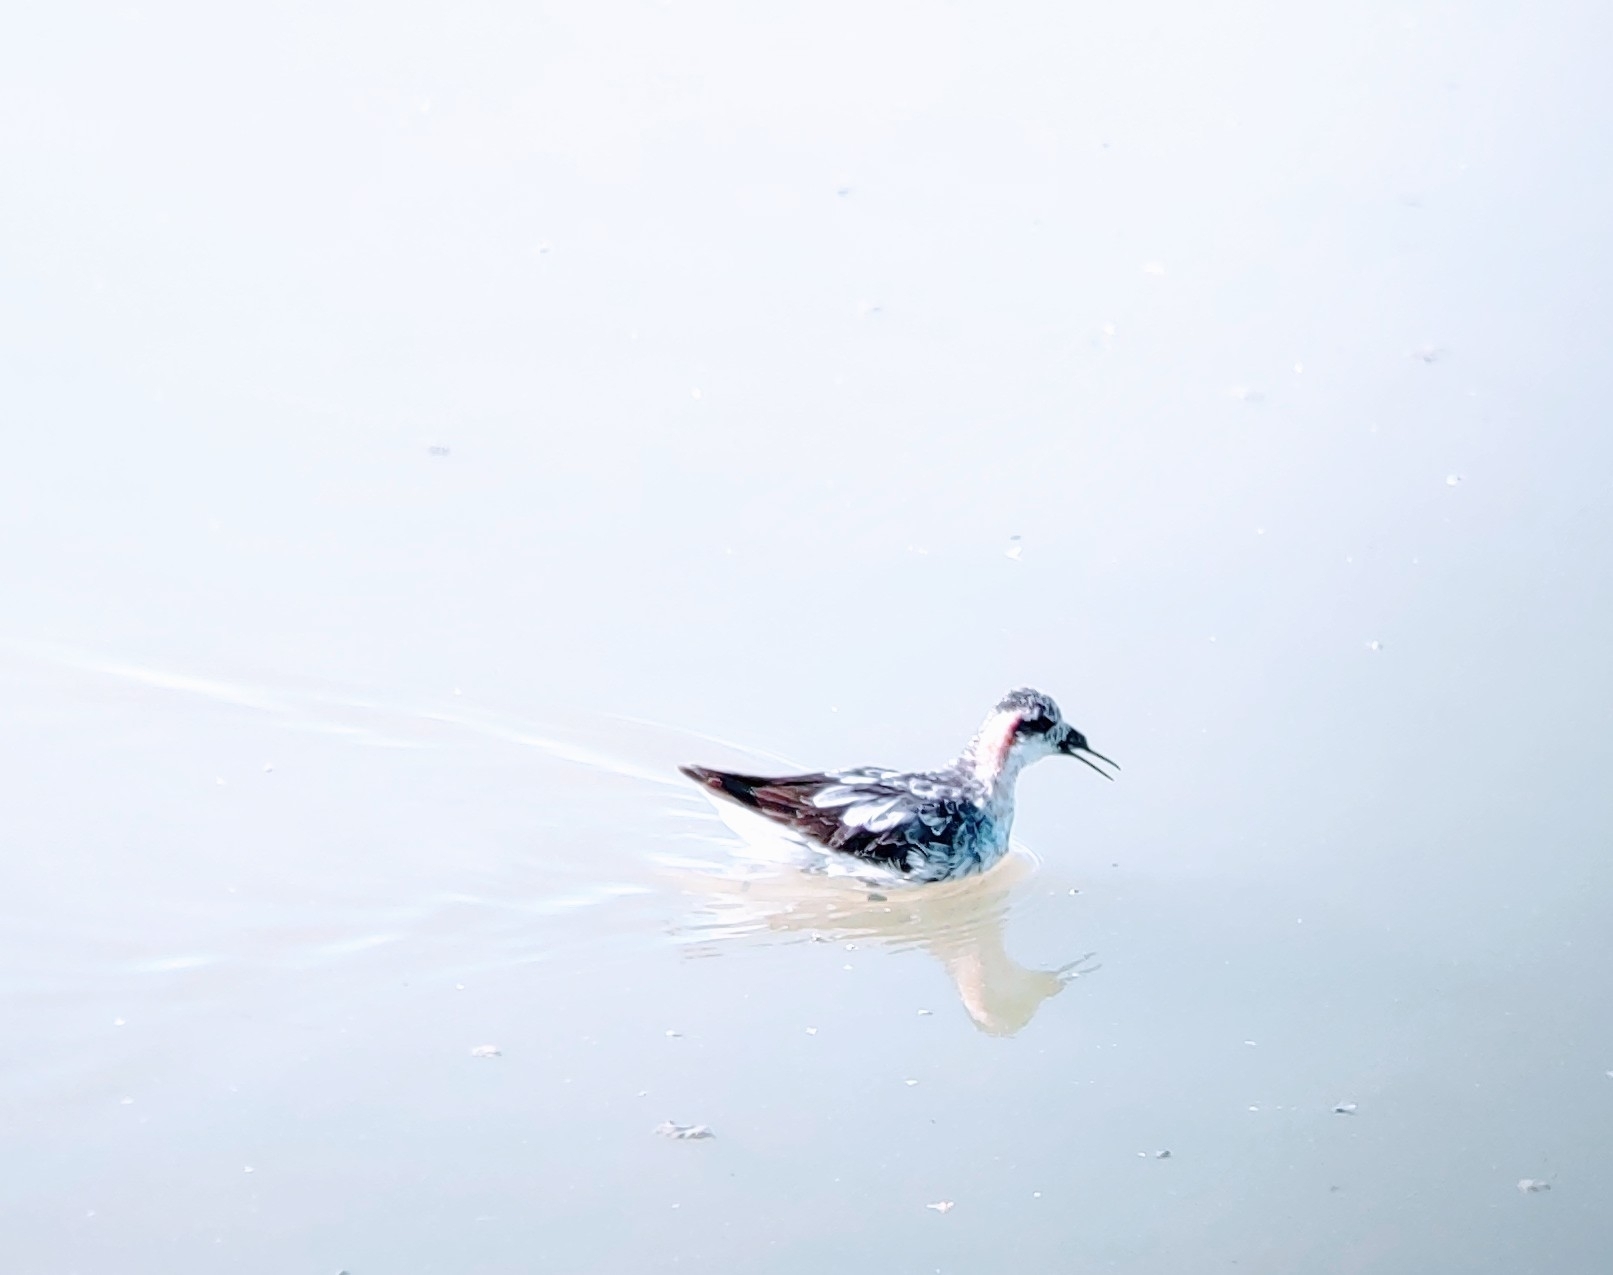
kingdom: Animalia
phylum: Chordata
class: Aves
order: Charadriiformes
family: Scolopacidae
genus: Phalaropus
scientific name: Phalaropus lobatus
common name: Red-necked phalarope
